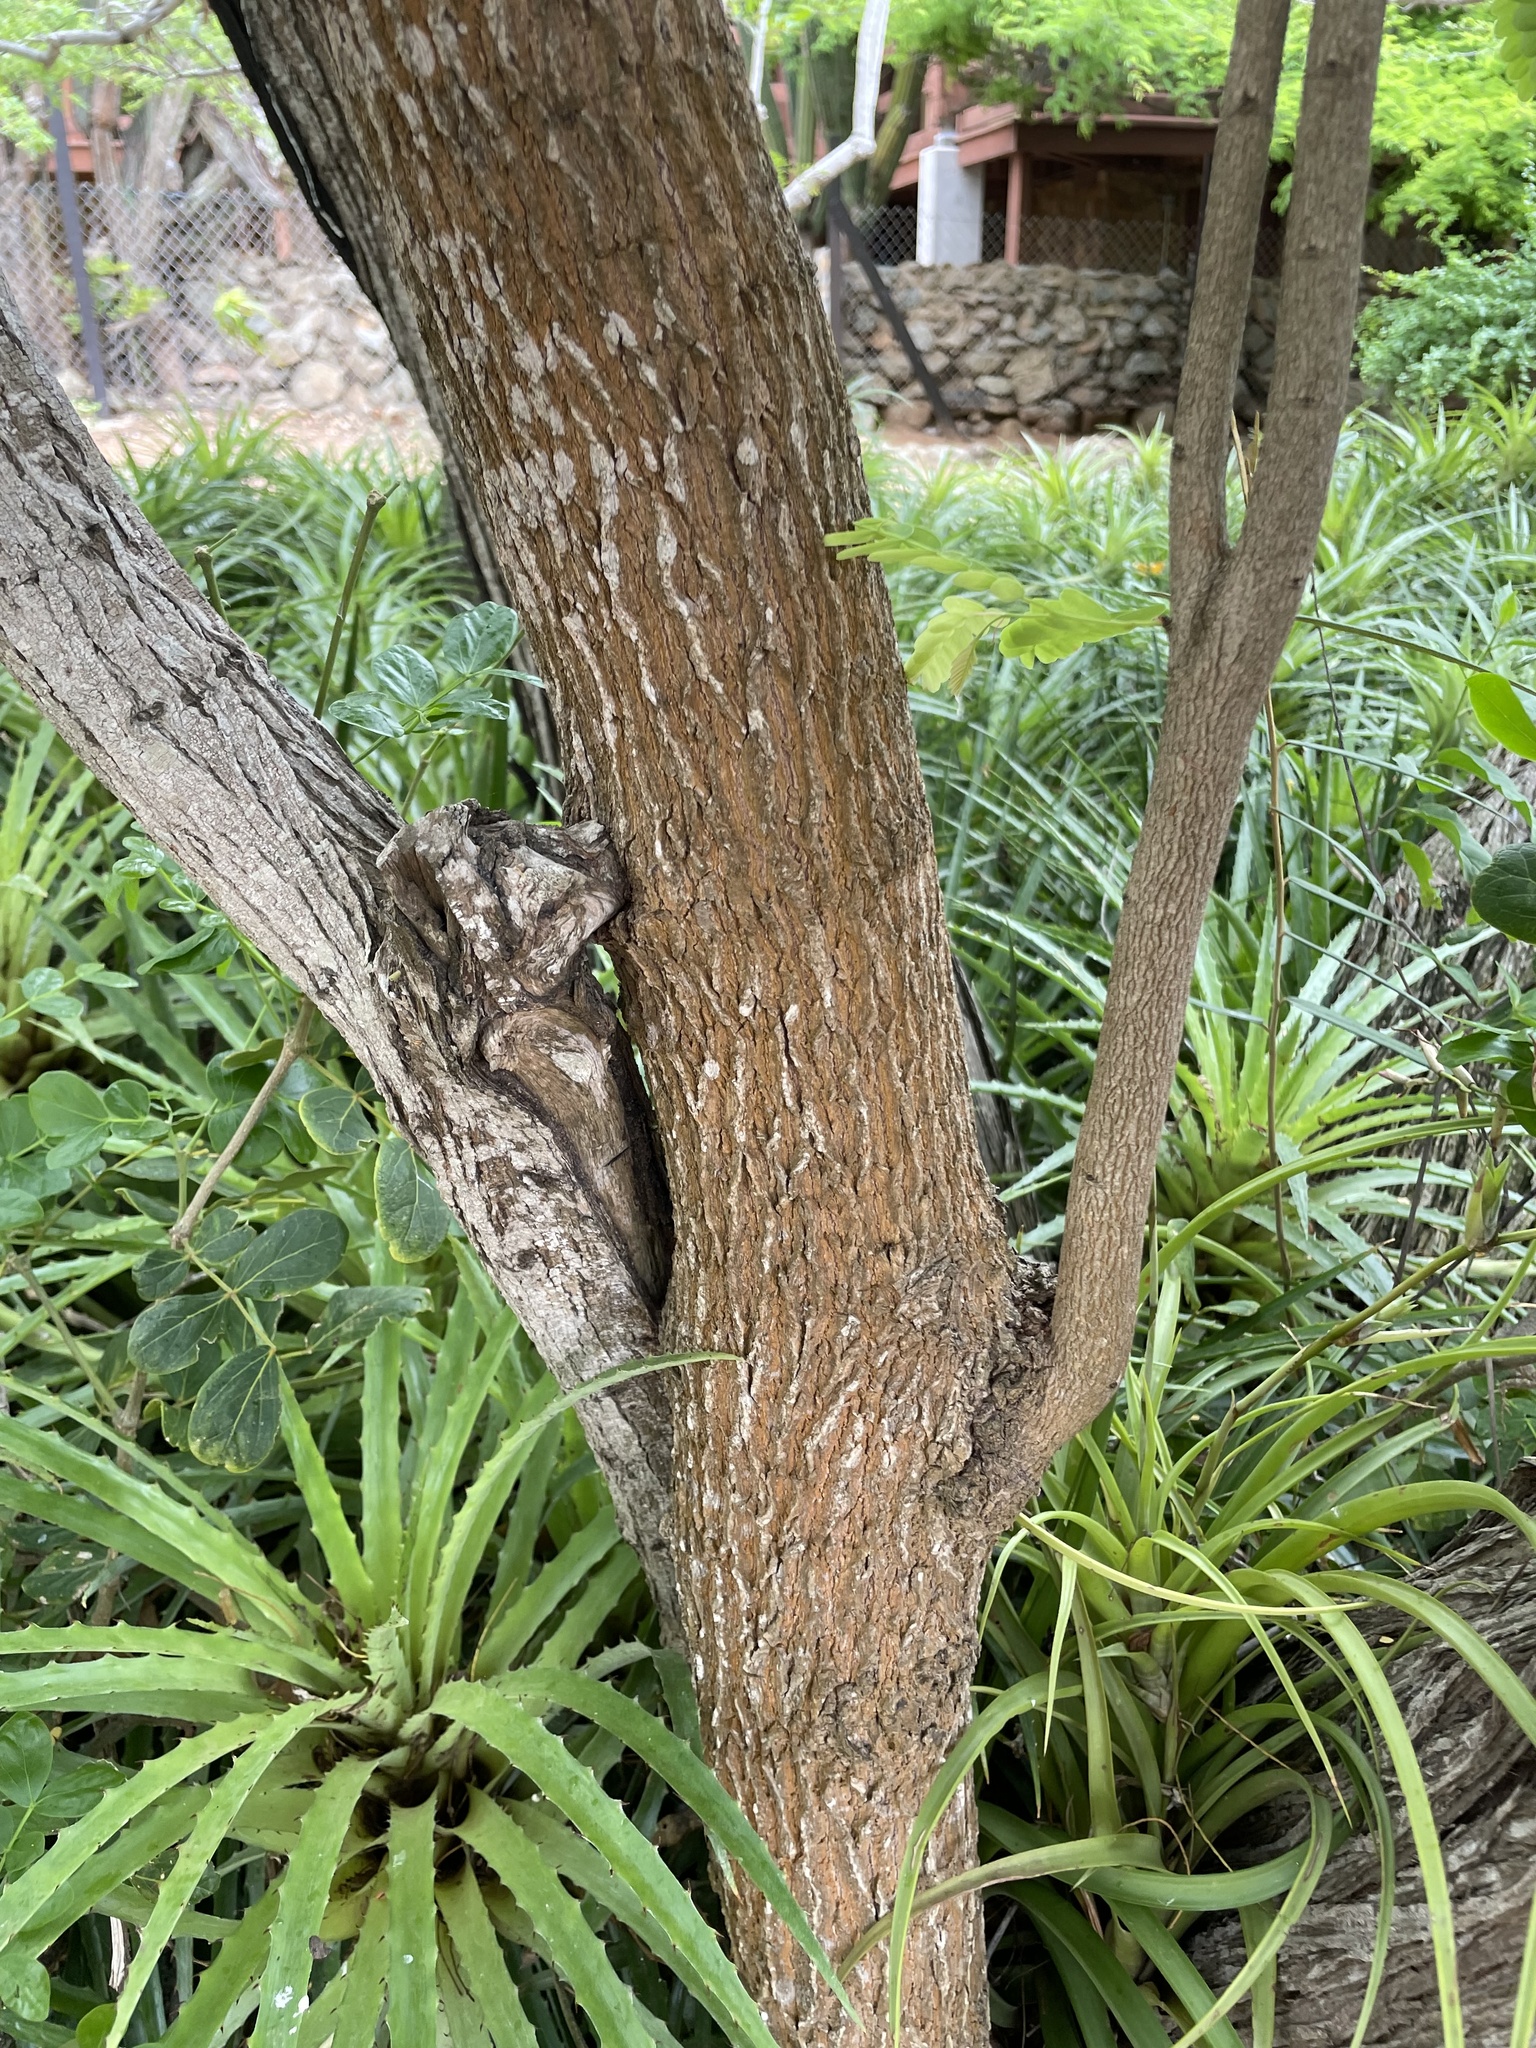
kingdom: Plantae
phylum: Tracheophyta
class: Liliopsida
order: Poales
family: Bromeliaceae
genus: Bromelia
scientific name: Bromelia humilis
